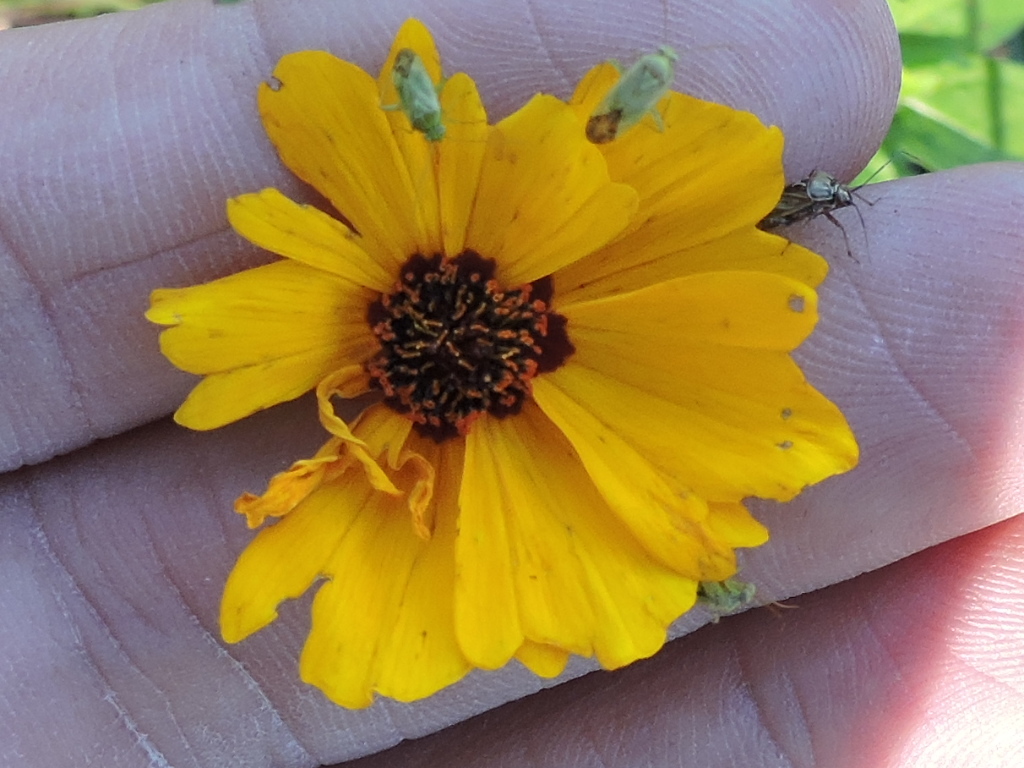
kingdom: Plantae
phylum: Tracheophyta
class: Magnoliopsida
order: Asterales
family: Asteraceae
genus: Coreopsis
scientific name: Coreopsis tinctoria
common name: Garden tickseed
